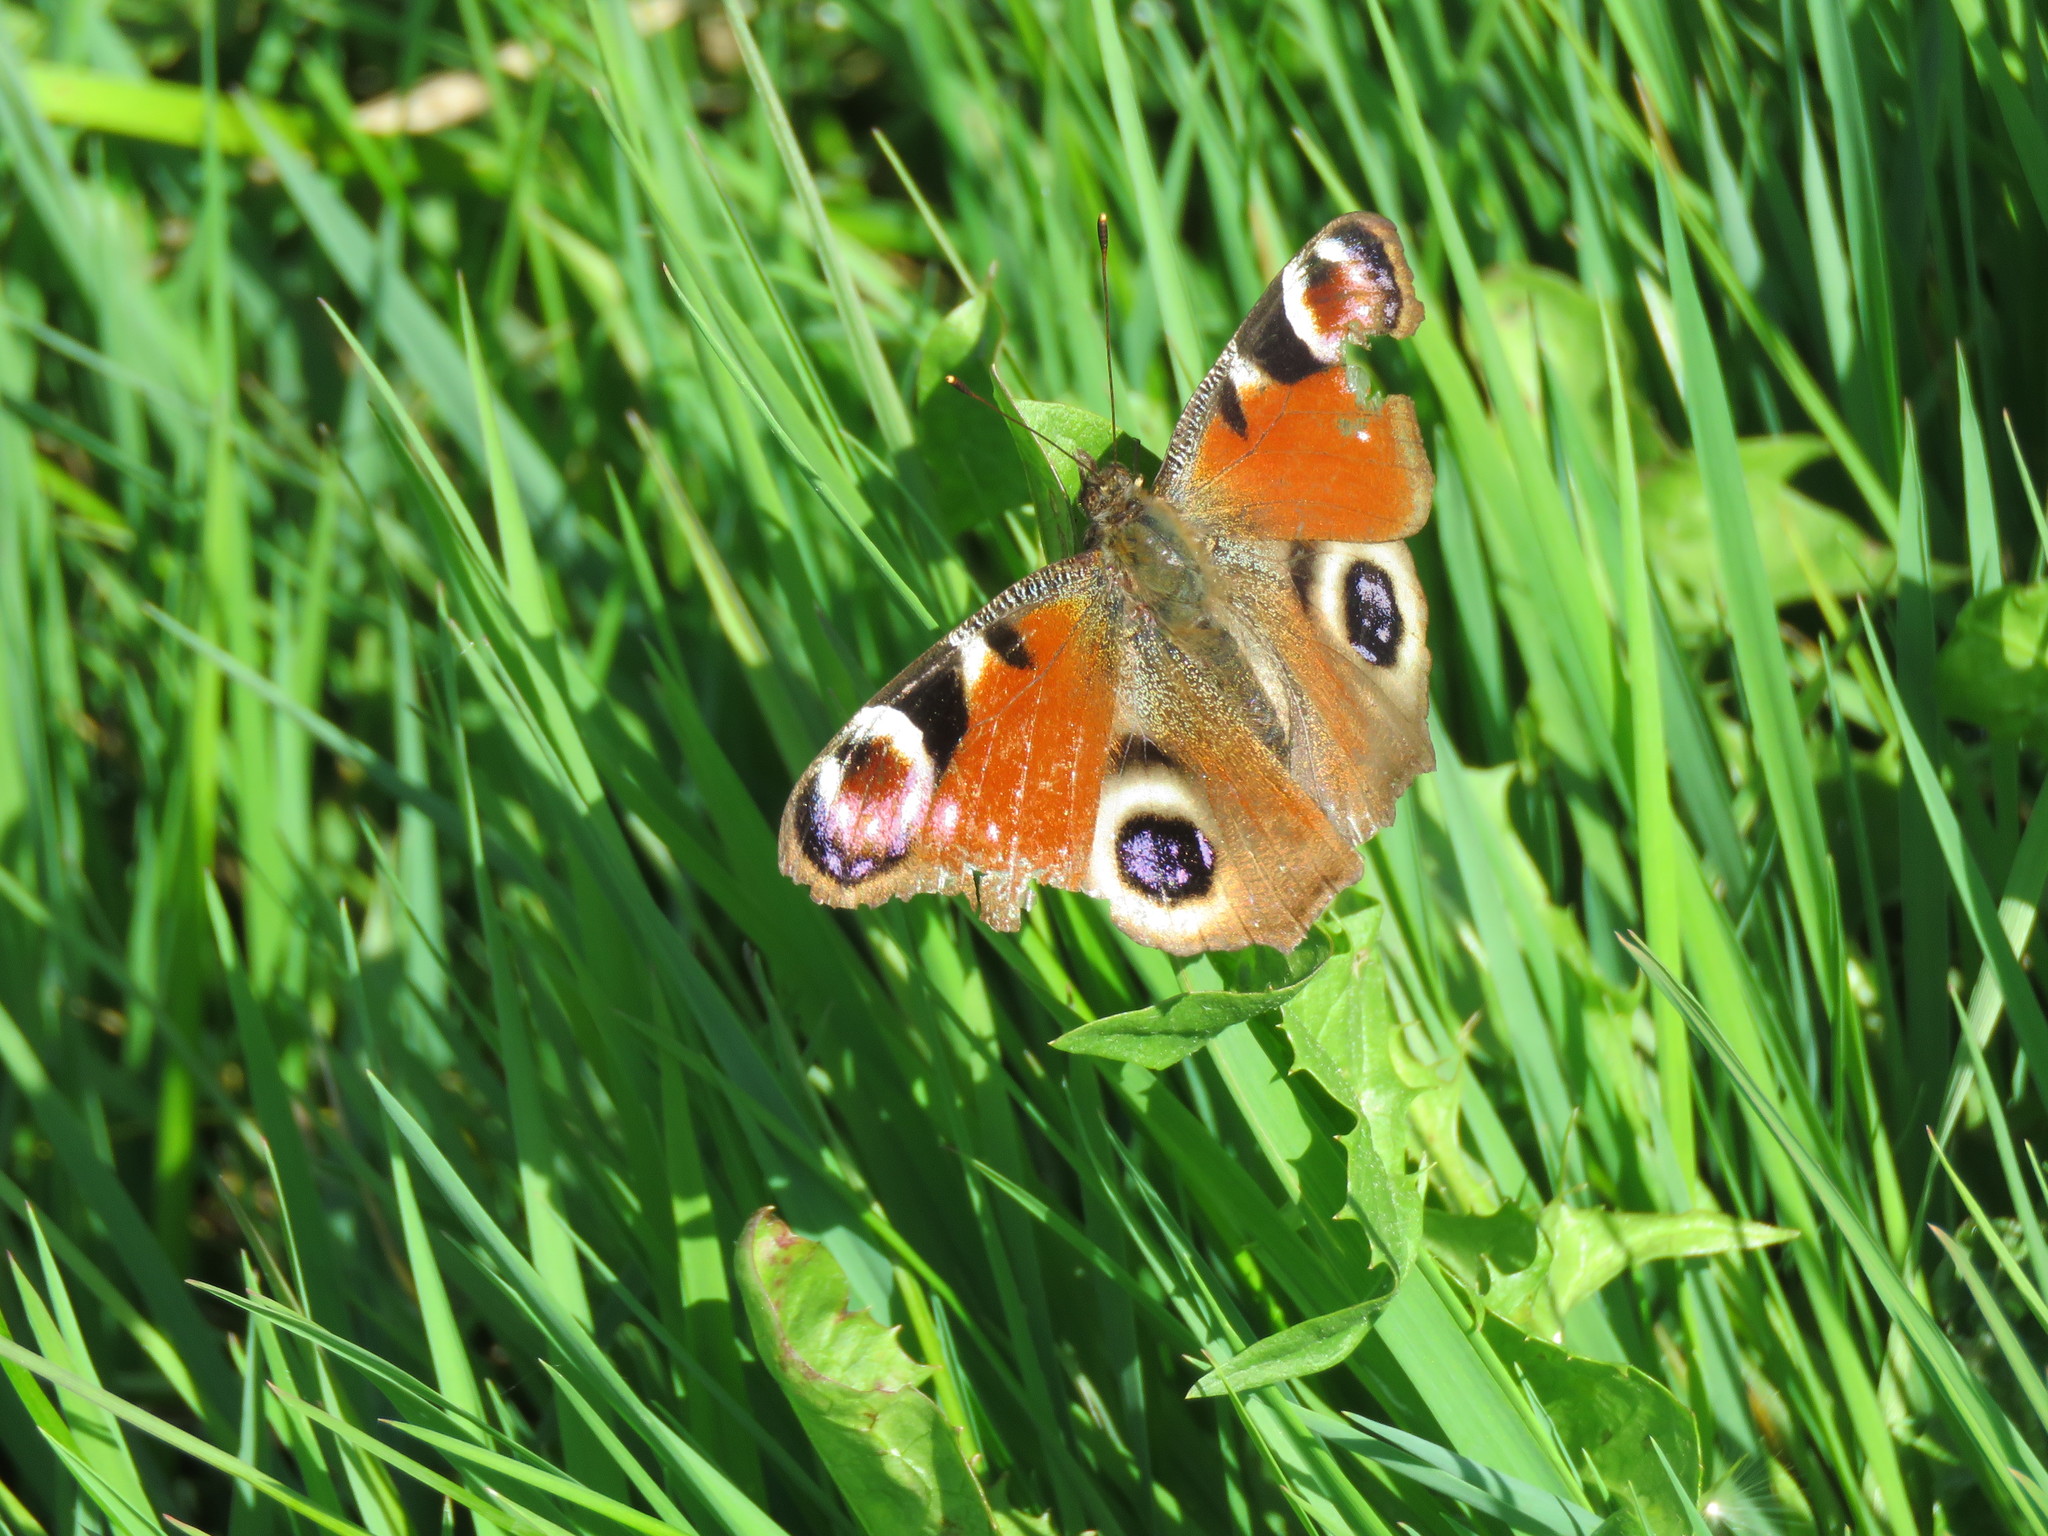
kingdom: Animalia
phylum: Arthropoda
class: Insecta
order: Lepidoptera
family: Nymphalidae
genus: Aglais
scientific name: Aglais io
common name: Peacock
